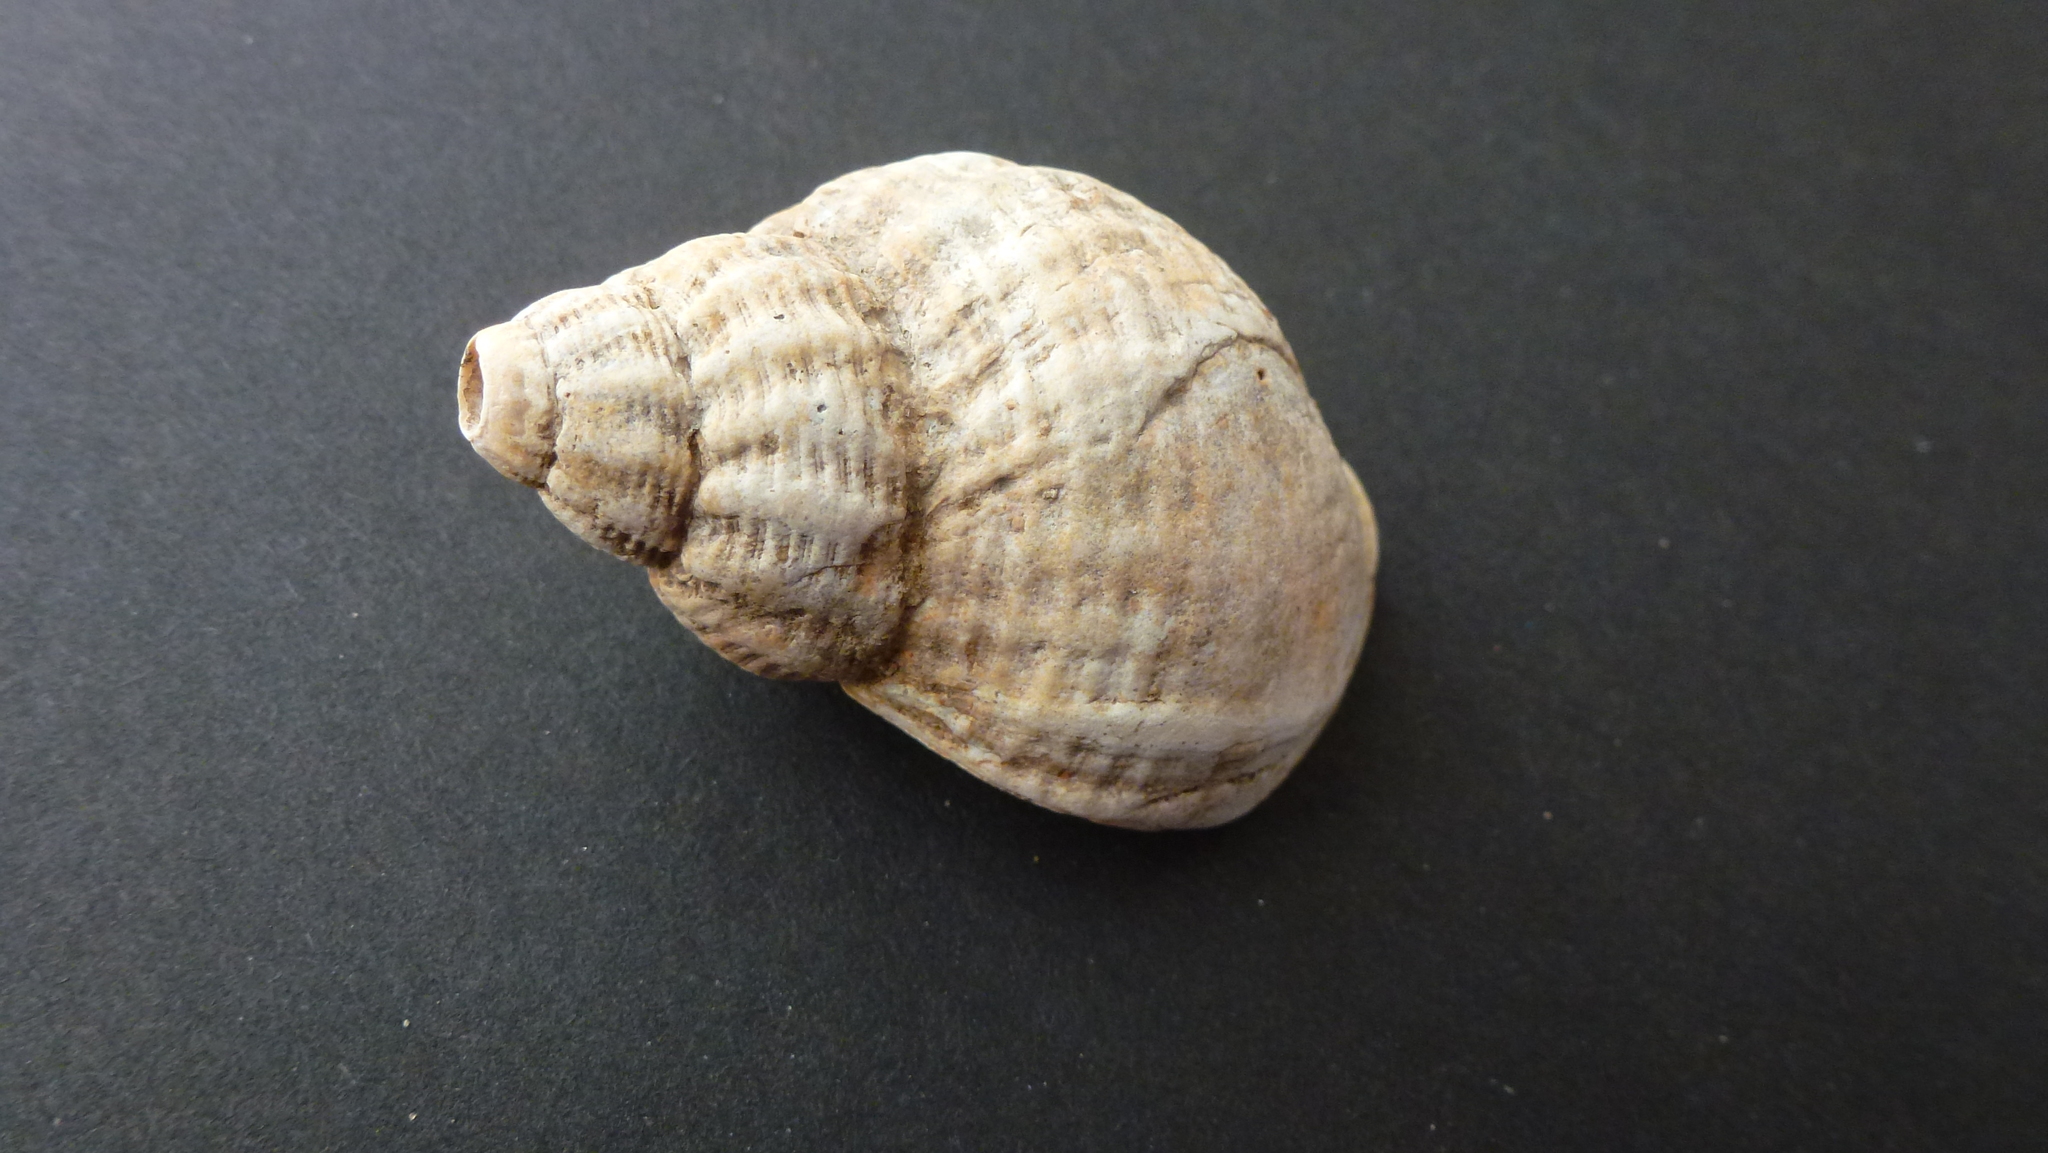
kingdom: Animalia
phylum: Mollusca
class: Gastropoda
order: Neogastropoda
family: Buccinidae
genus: Buccinum
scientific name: Buccinum undatum
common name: Common whelk
